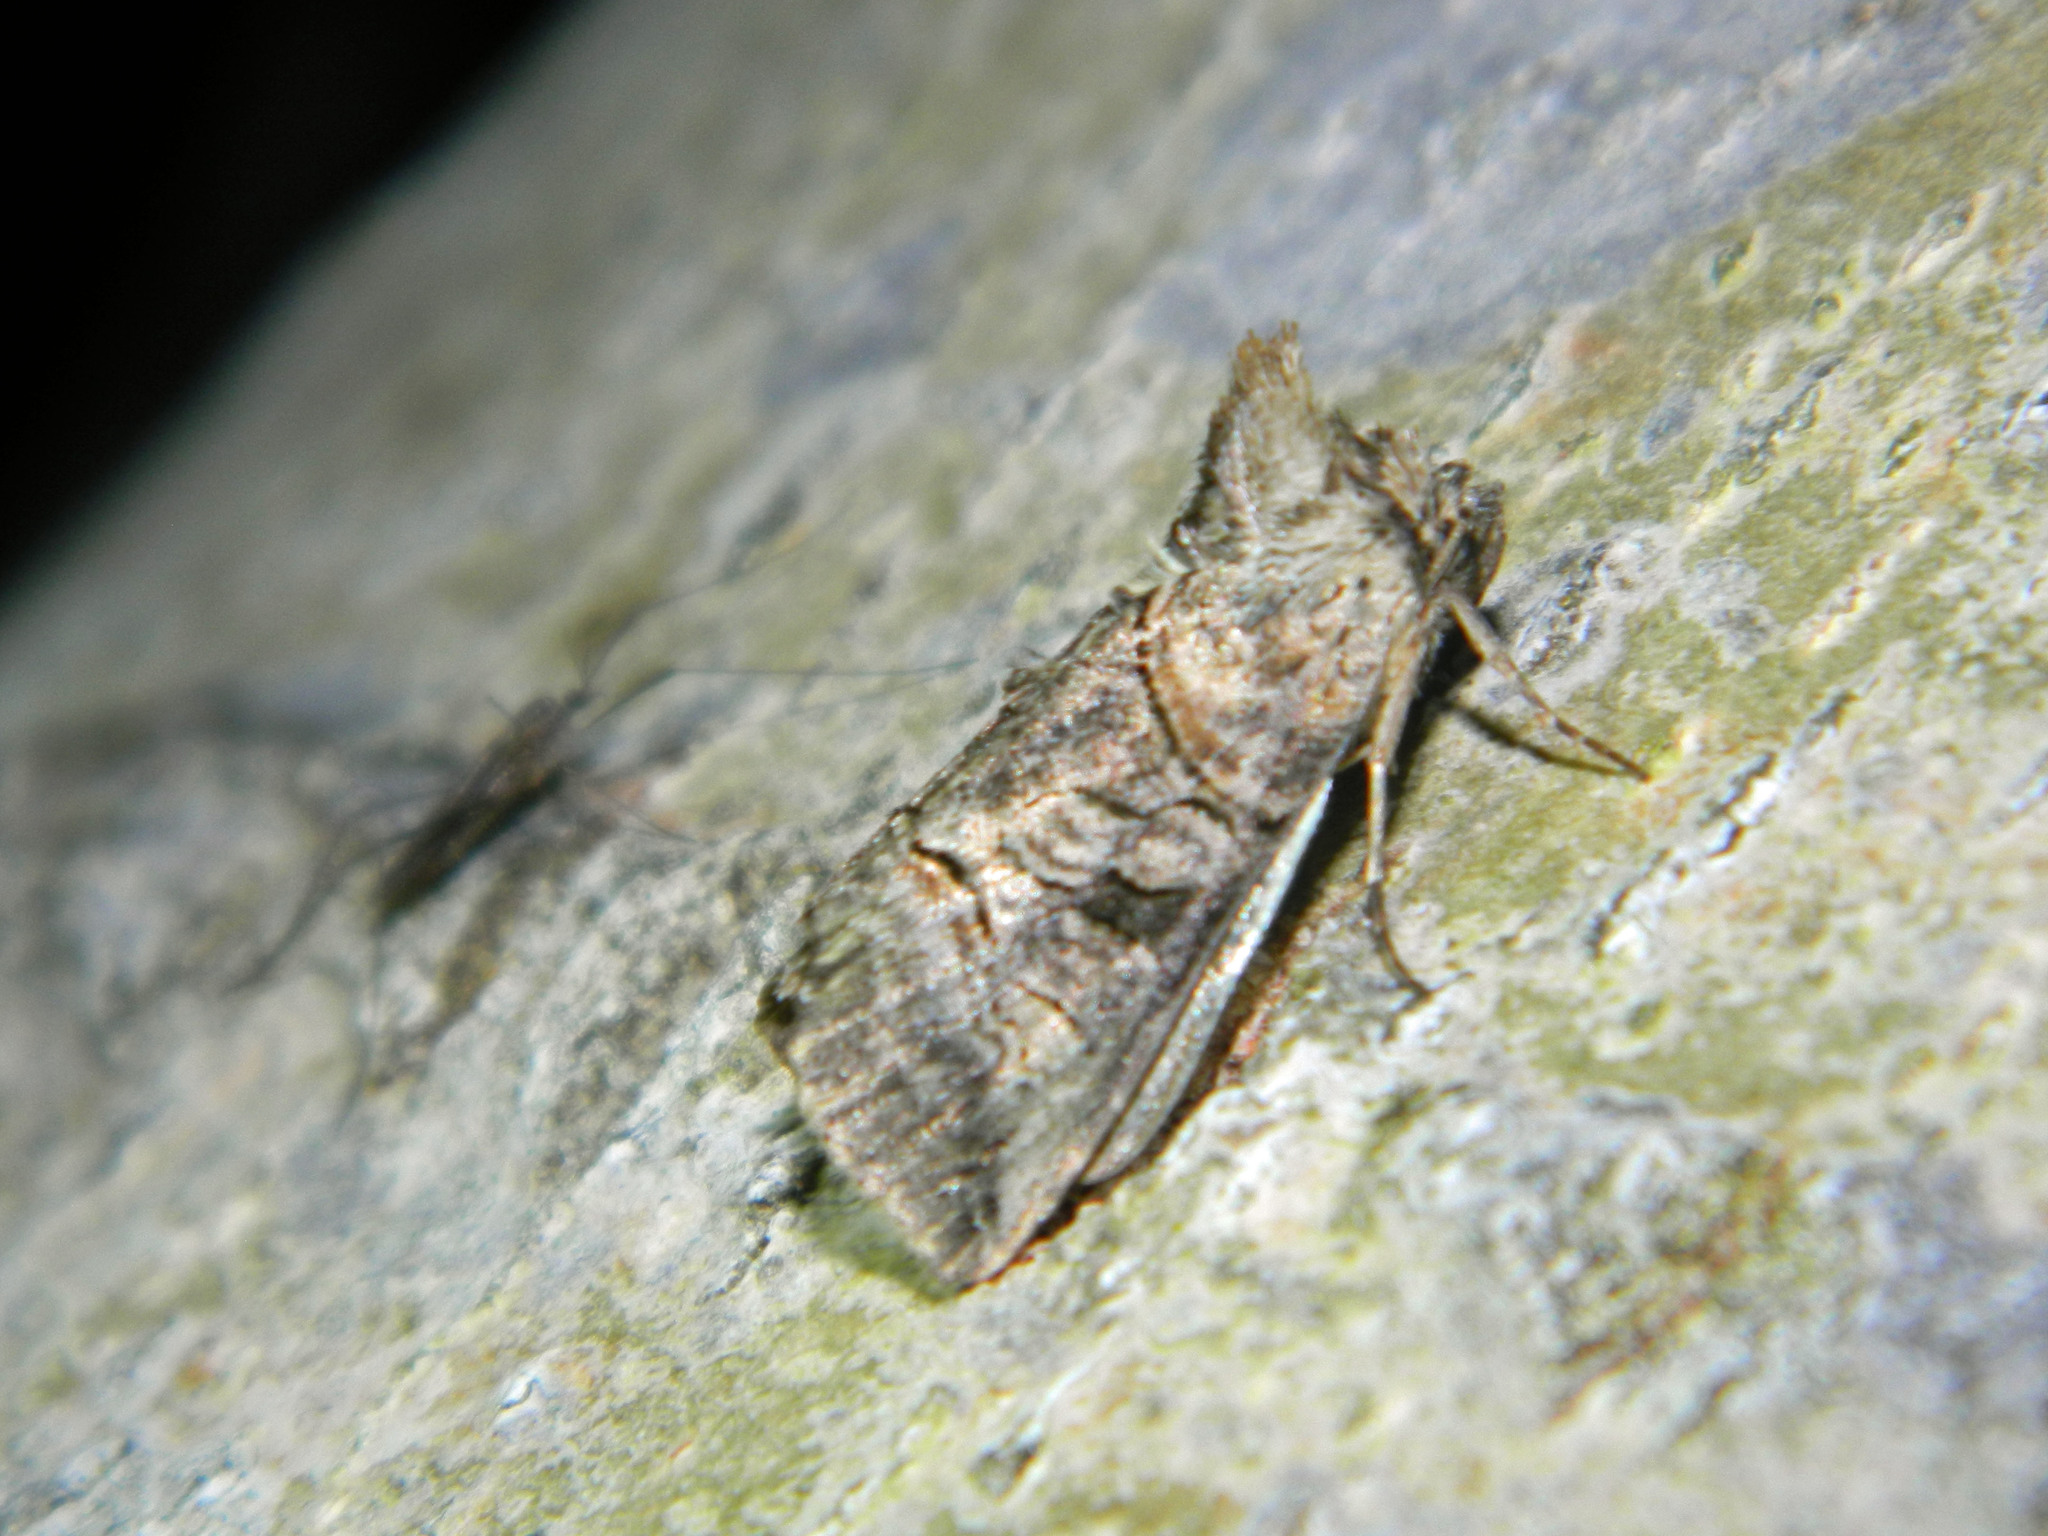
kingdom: Animalia
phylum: Arthropoda
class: Insecta
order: Lepidoptera
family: Noctuidae
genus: Abrostola
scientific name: Abrostola urentis
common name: Spectacled nettle moth
